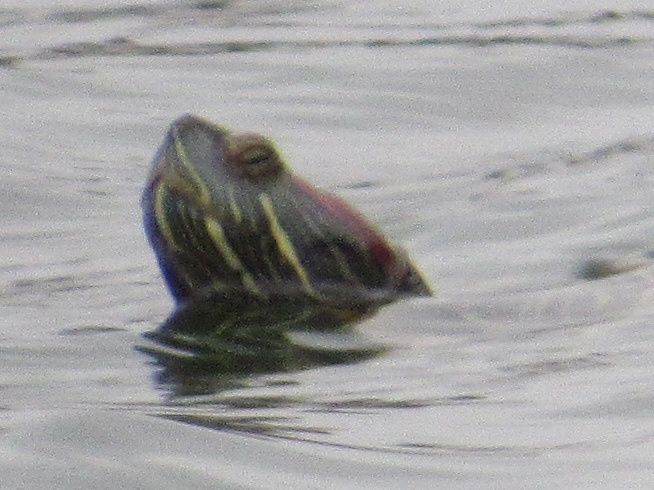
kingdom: Animalia
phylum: Chordata
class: Testudines
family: Emydidae
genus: Trachemys
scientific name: Trachemys scripta
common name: Slider
